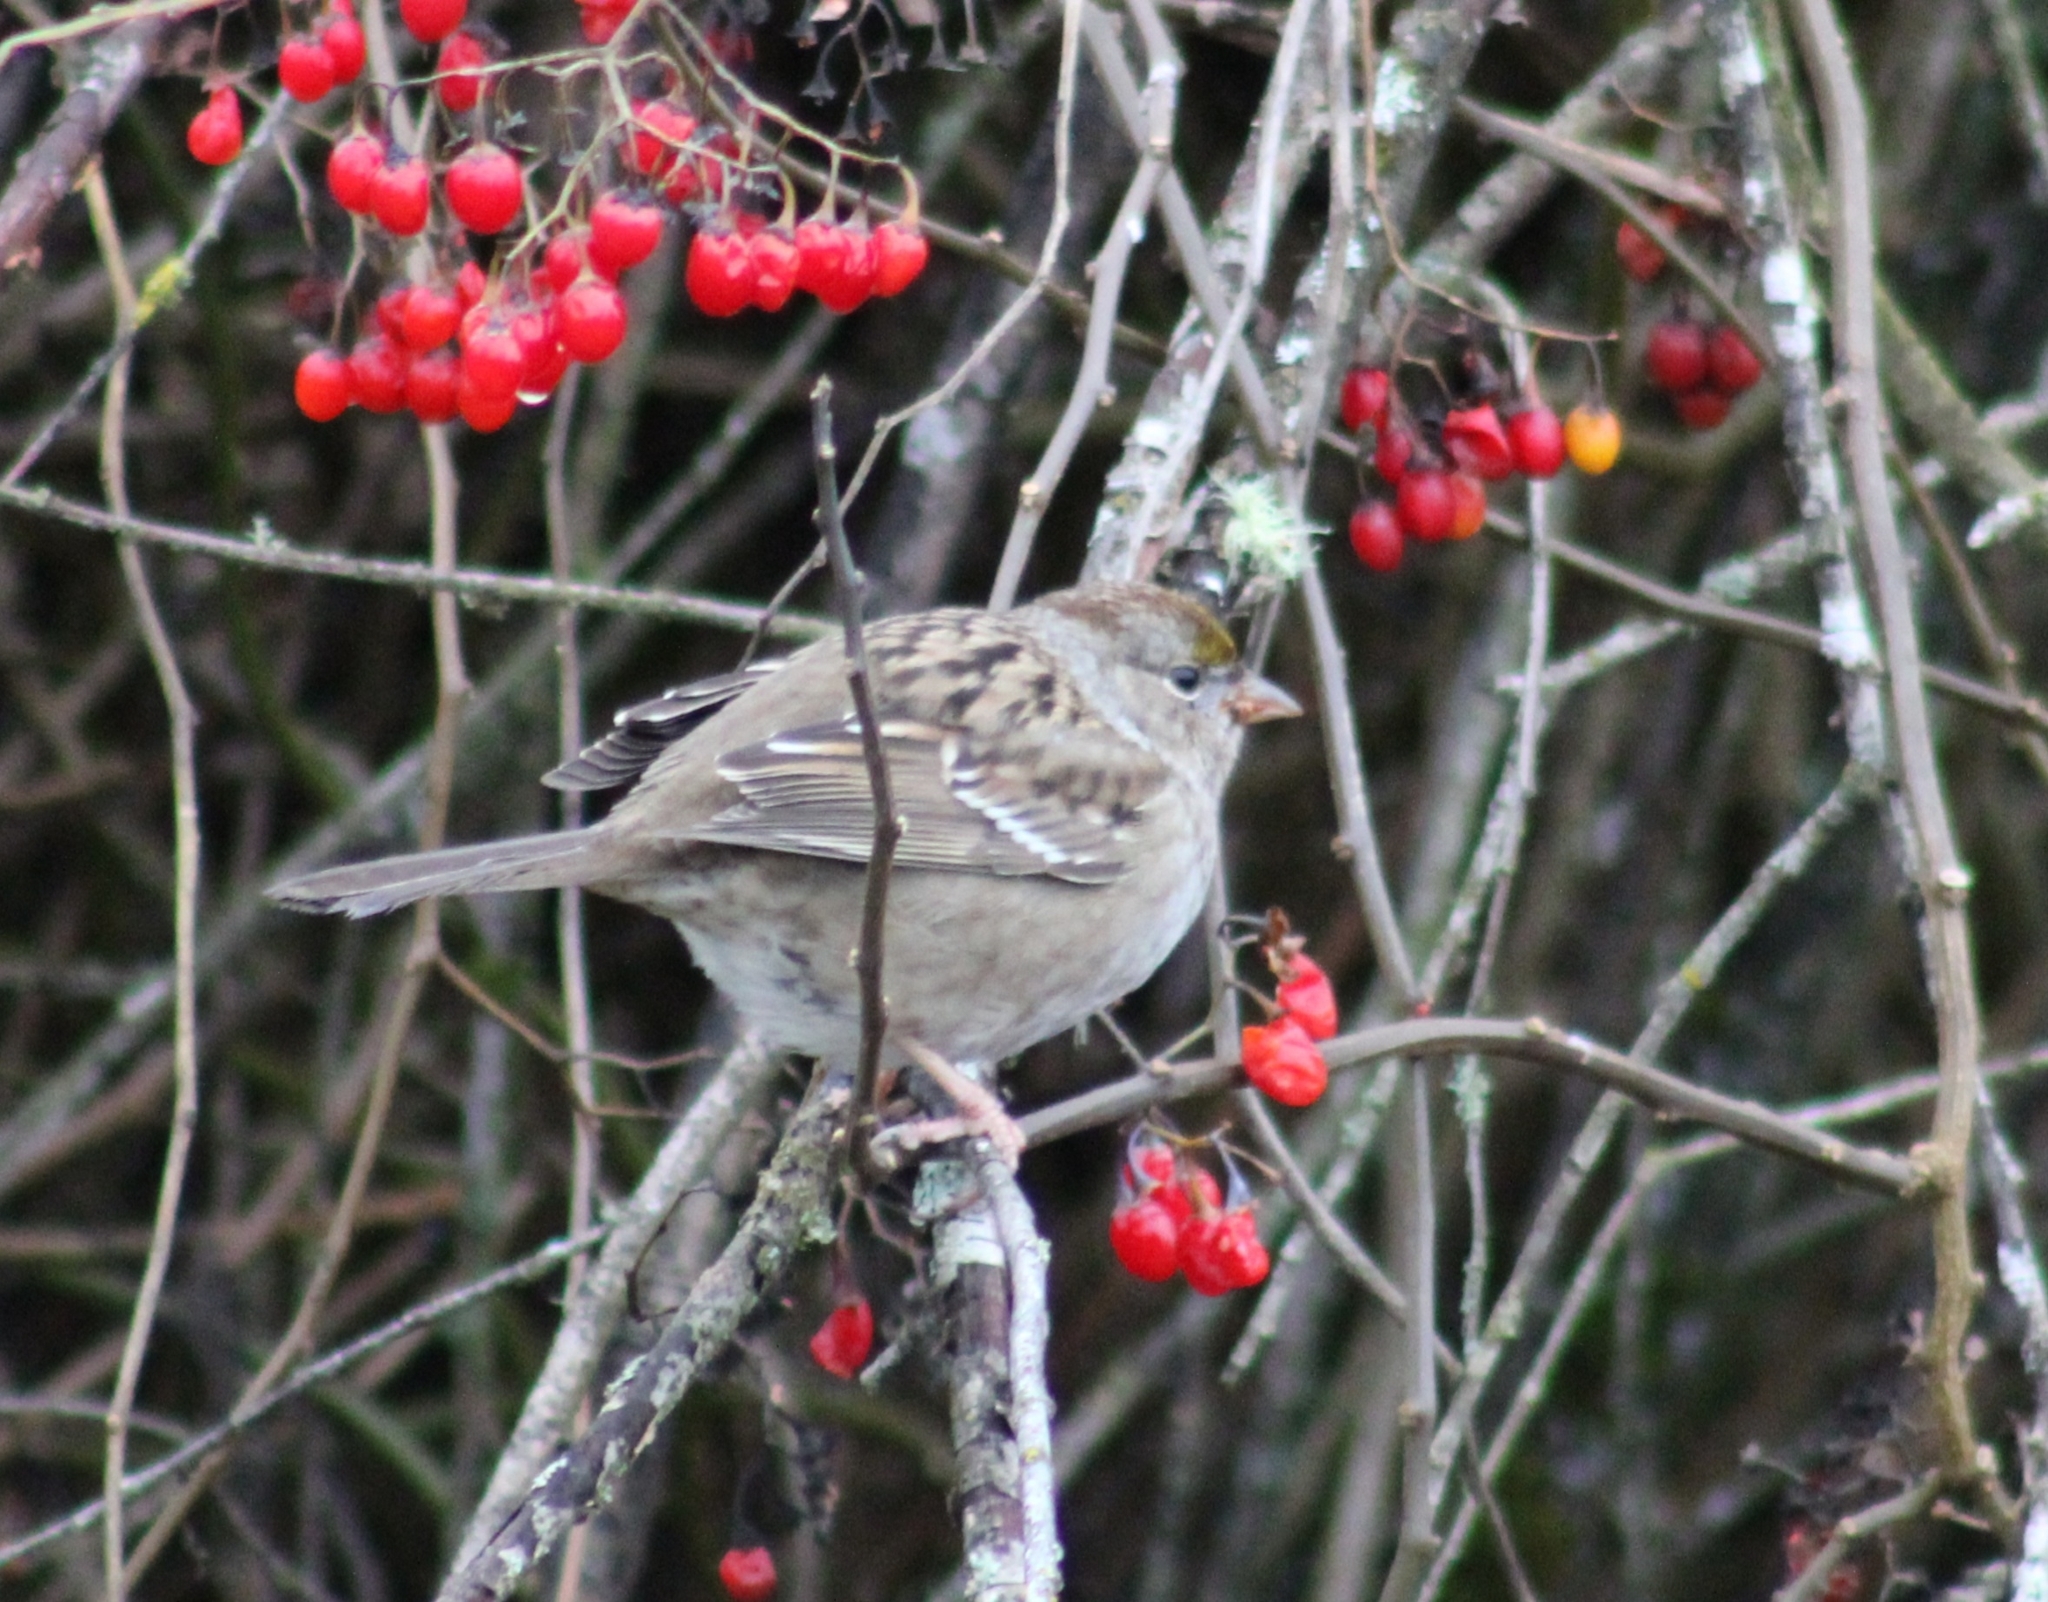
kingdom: Animalia
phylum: Chordata
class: Aves
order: Passeriformes
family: Passerellidae
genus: Zonotrichia
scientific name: Zonotrichia atricapilla
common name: Golden-crowned sparrow
